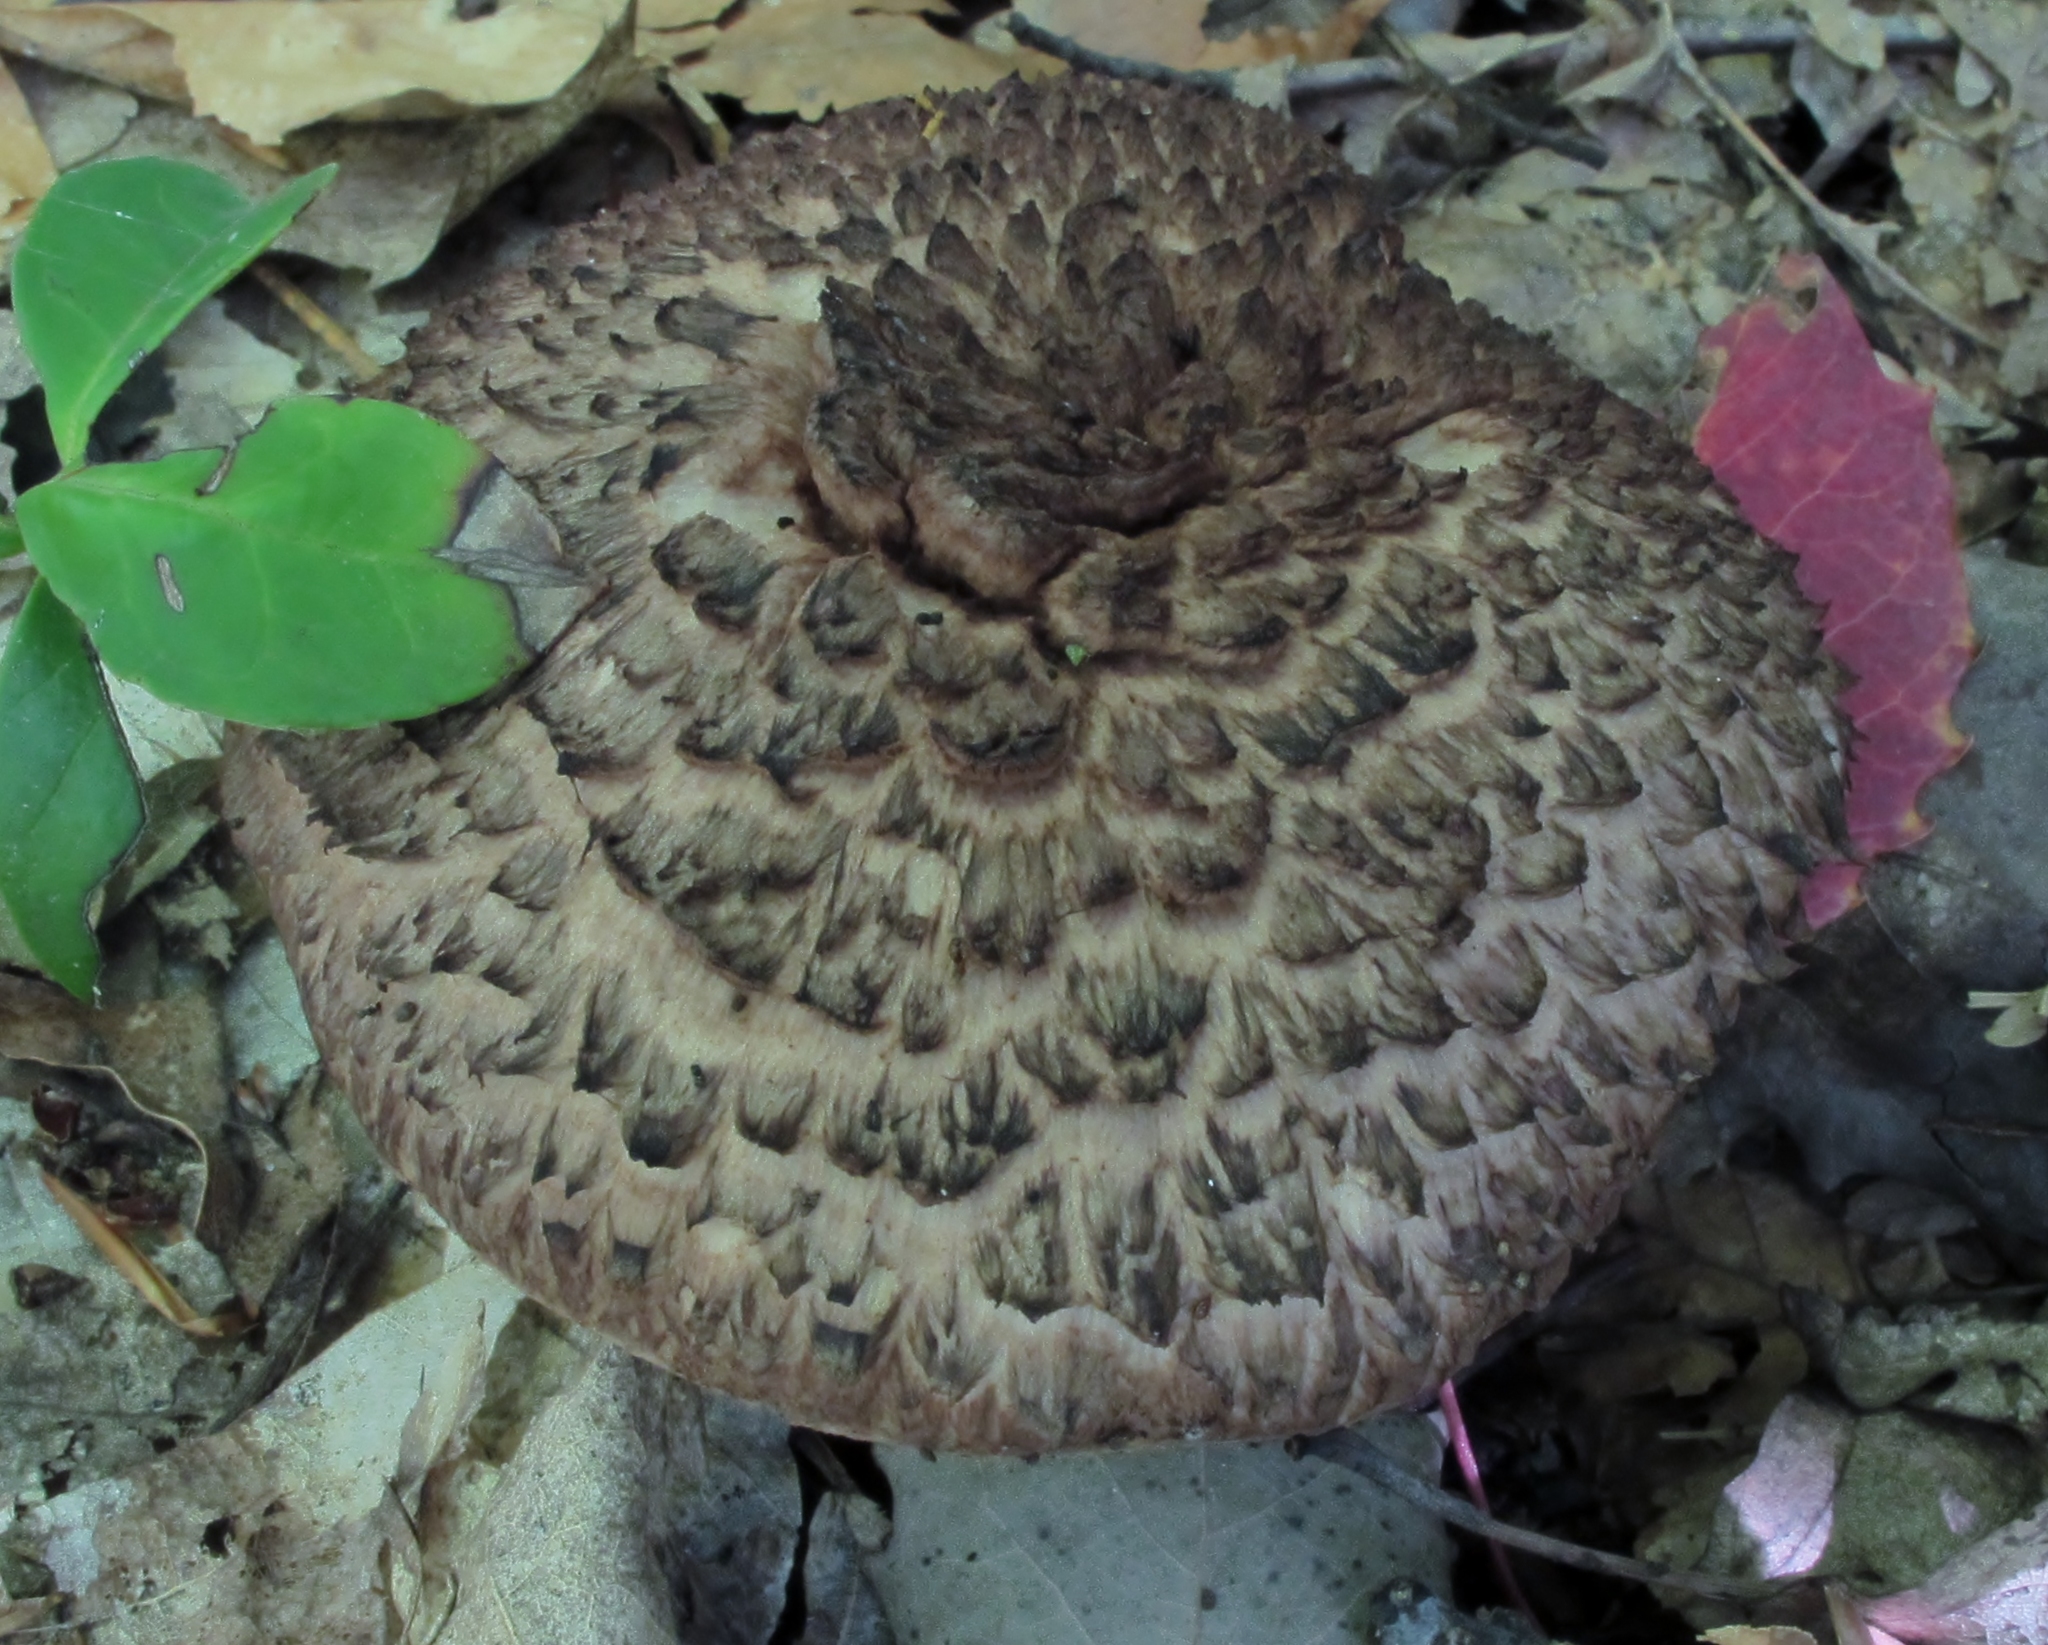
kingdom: Fungi
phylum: Basidiomycota
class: Agaricomycetes
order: Thelephorales
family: Bankeraceae
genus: Hydnellum
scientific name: Hydnellum fennicum
